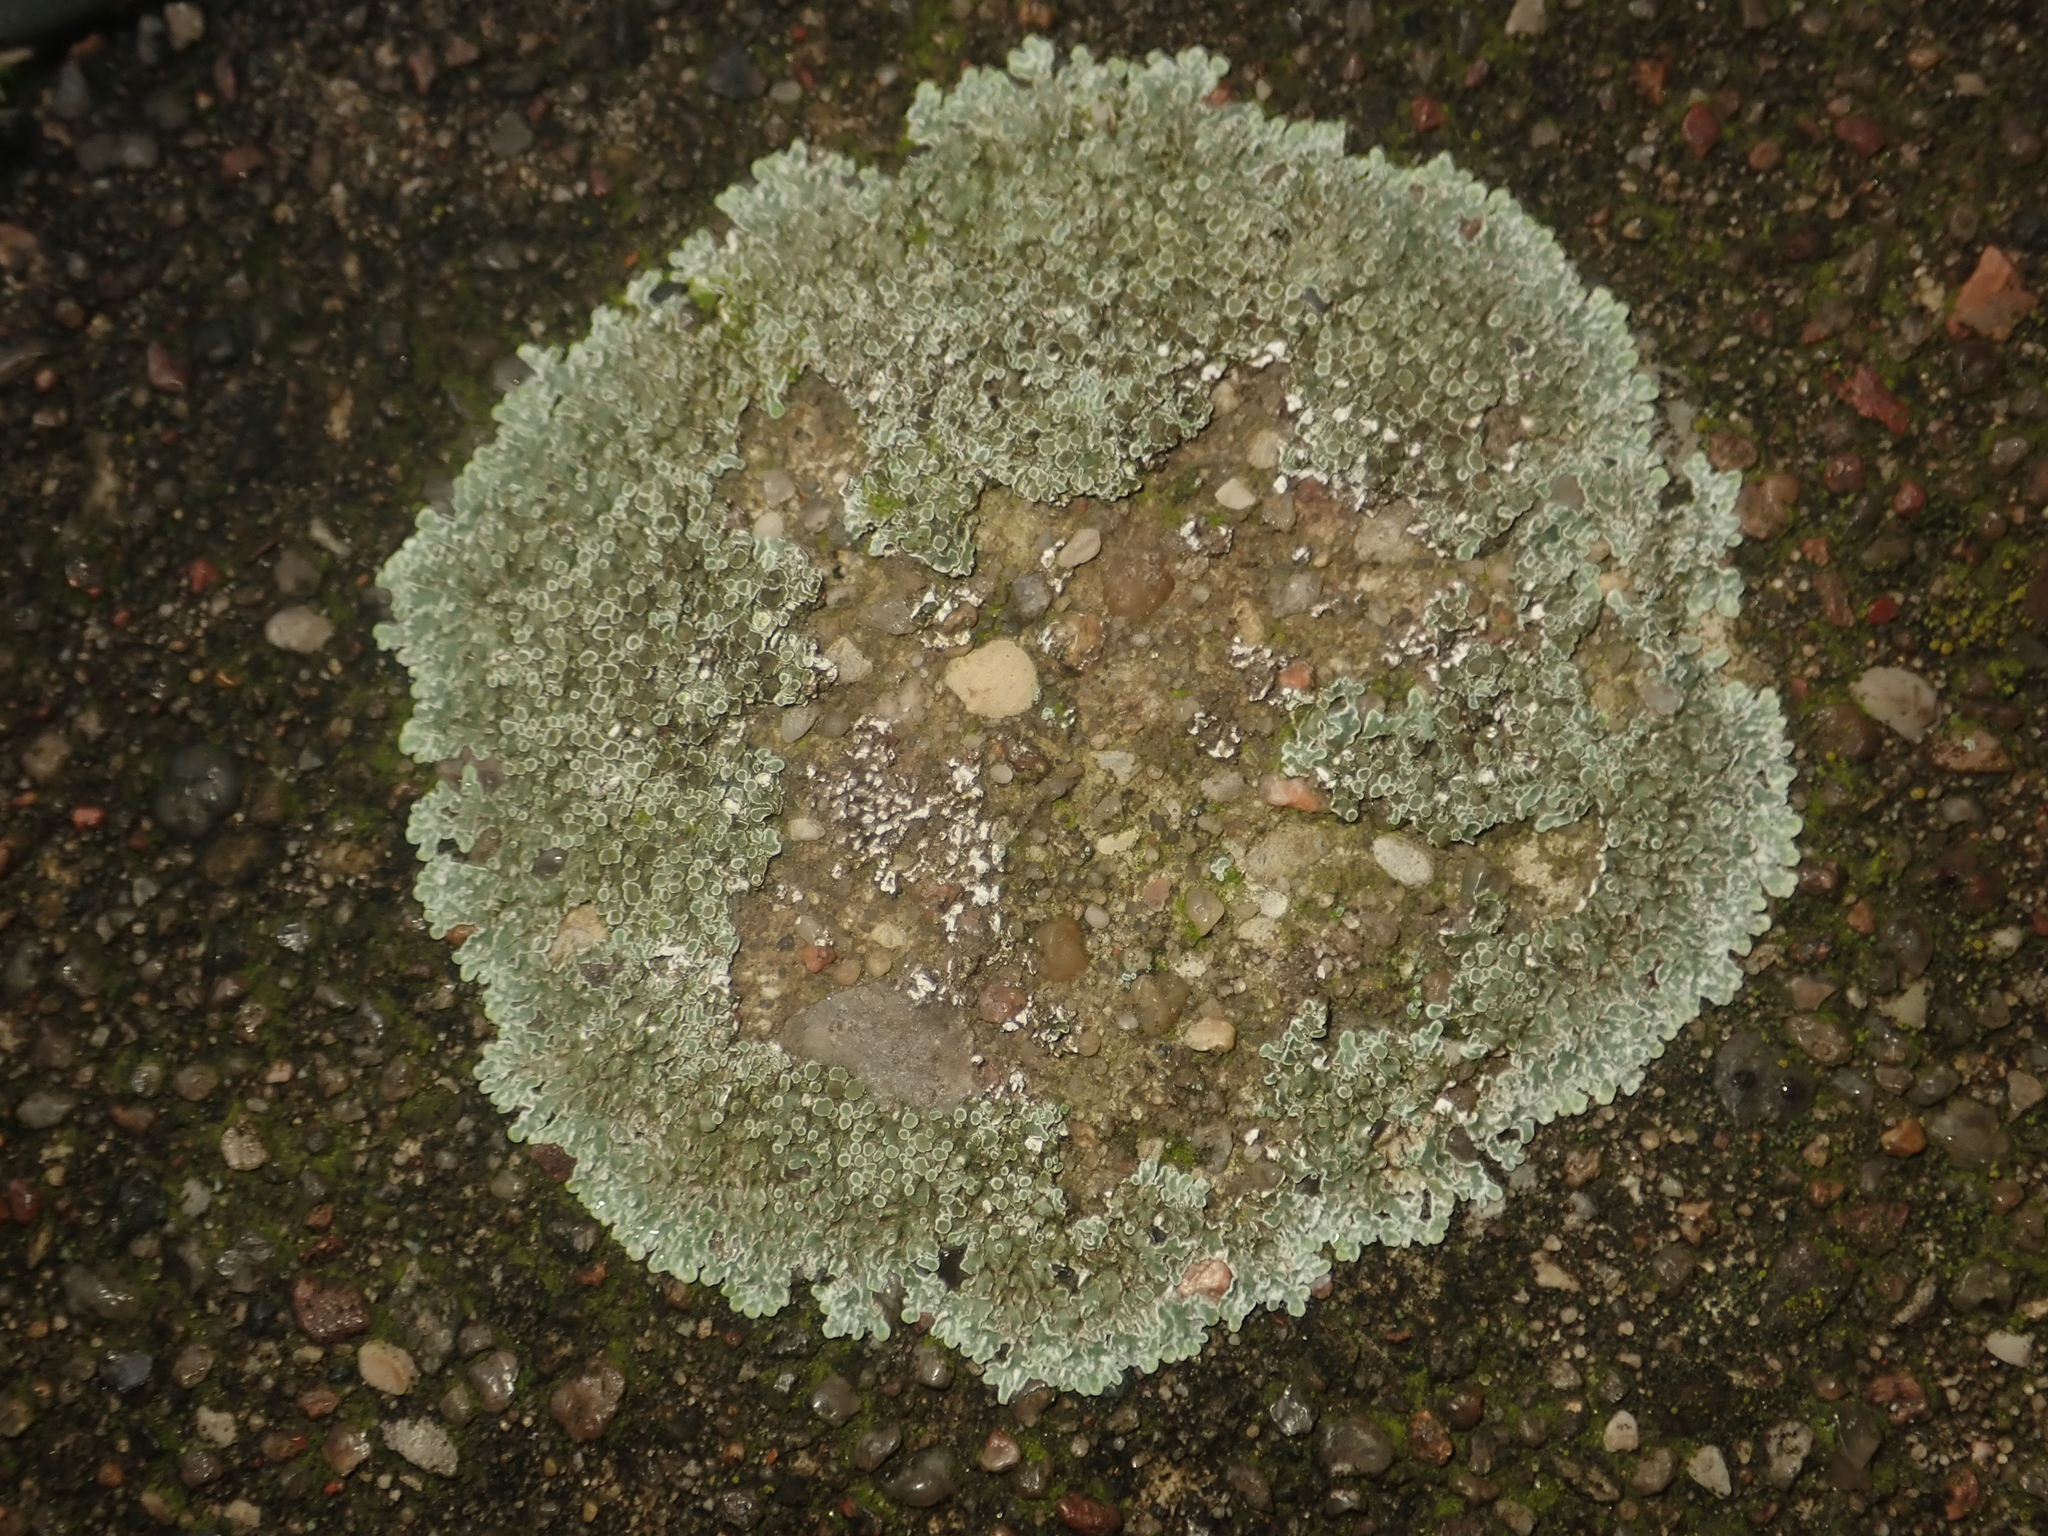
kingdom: Fungi
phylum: Ascomycota
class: Lecanoromycetes
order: Lecanorales
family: Lecanoraceae
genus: Protoparmeliopsis
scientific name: Protoparmeliopsis muralis
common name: Stonewall rim lichen
